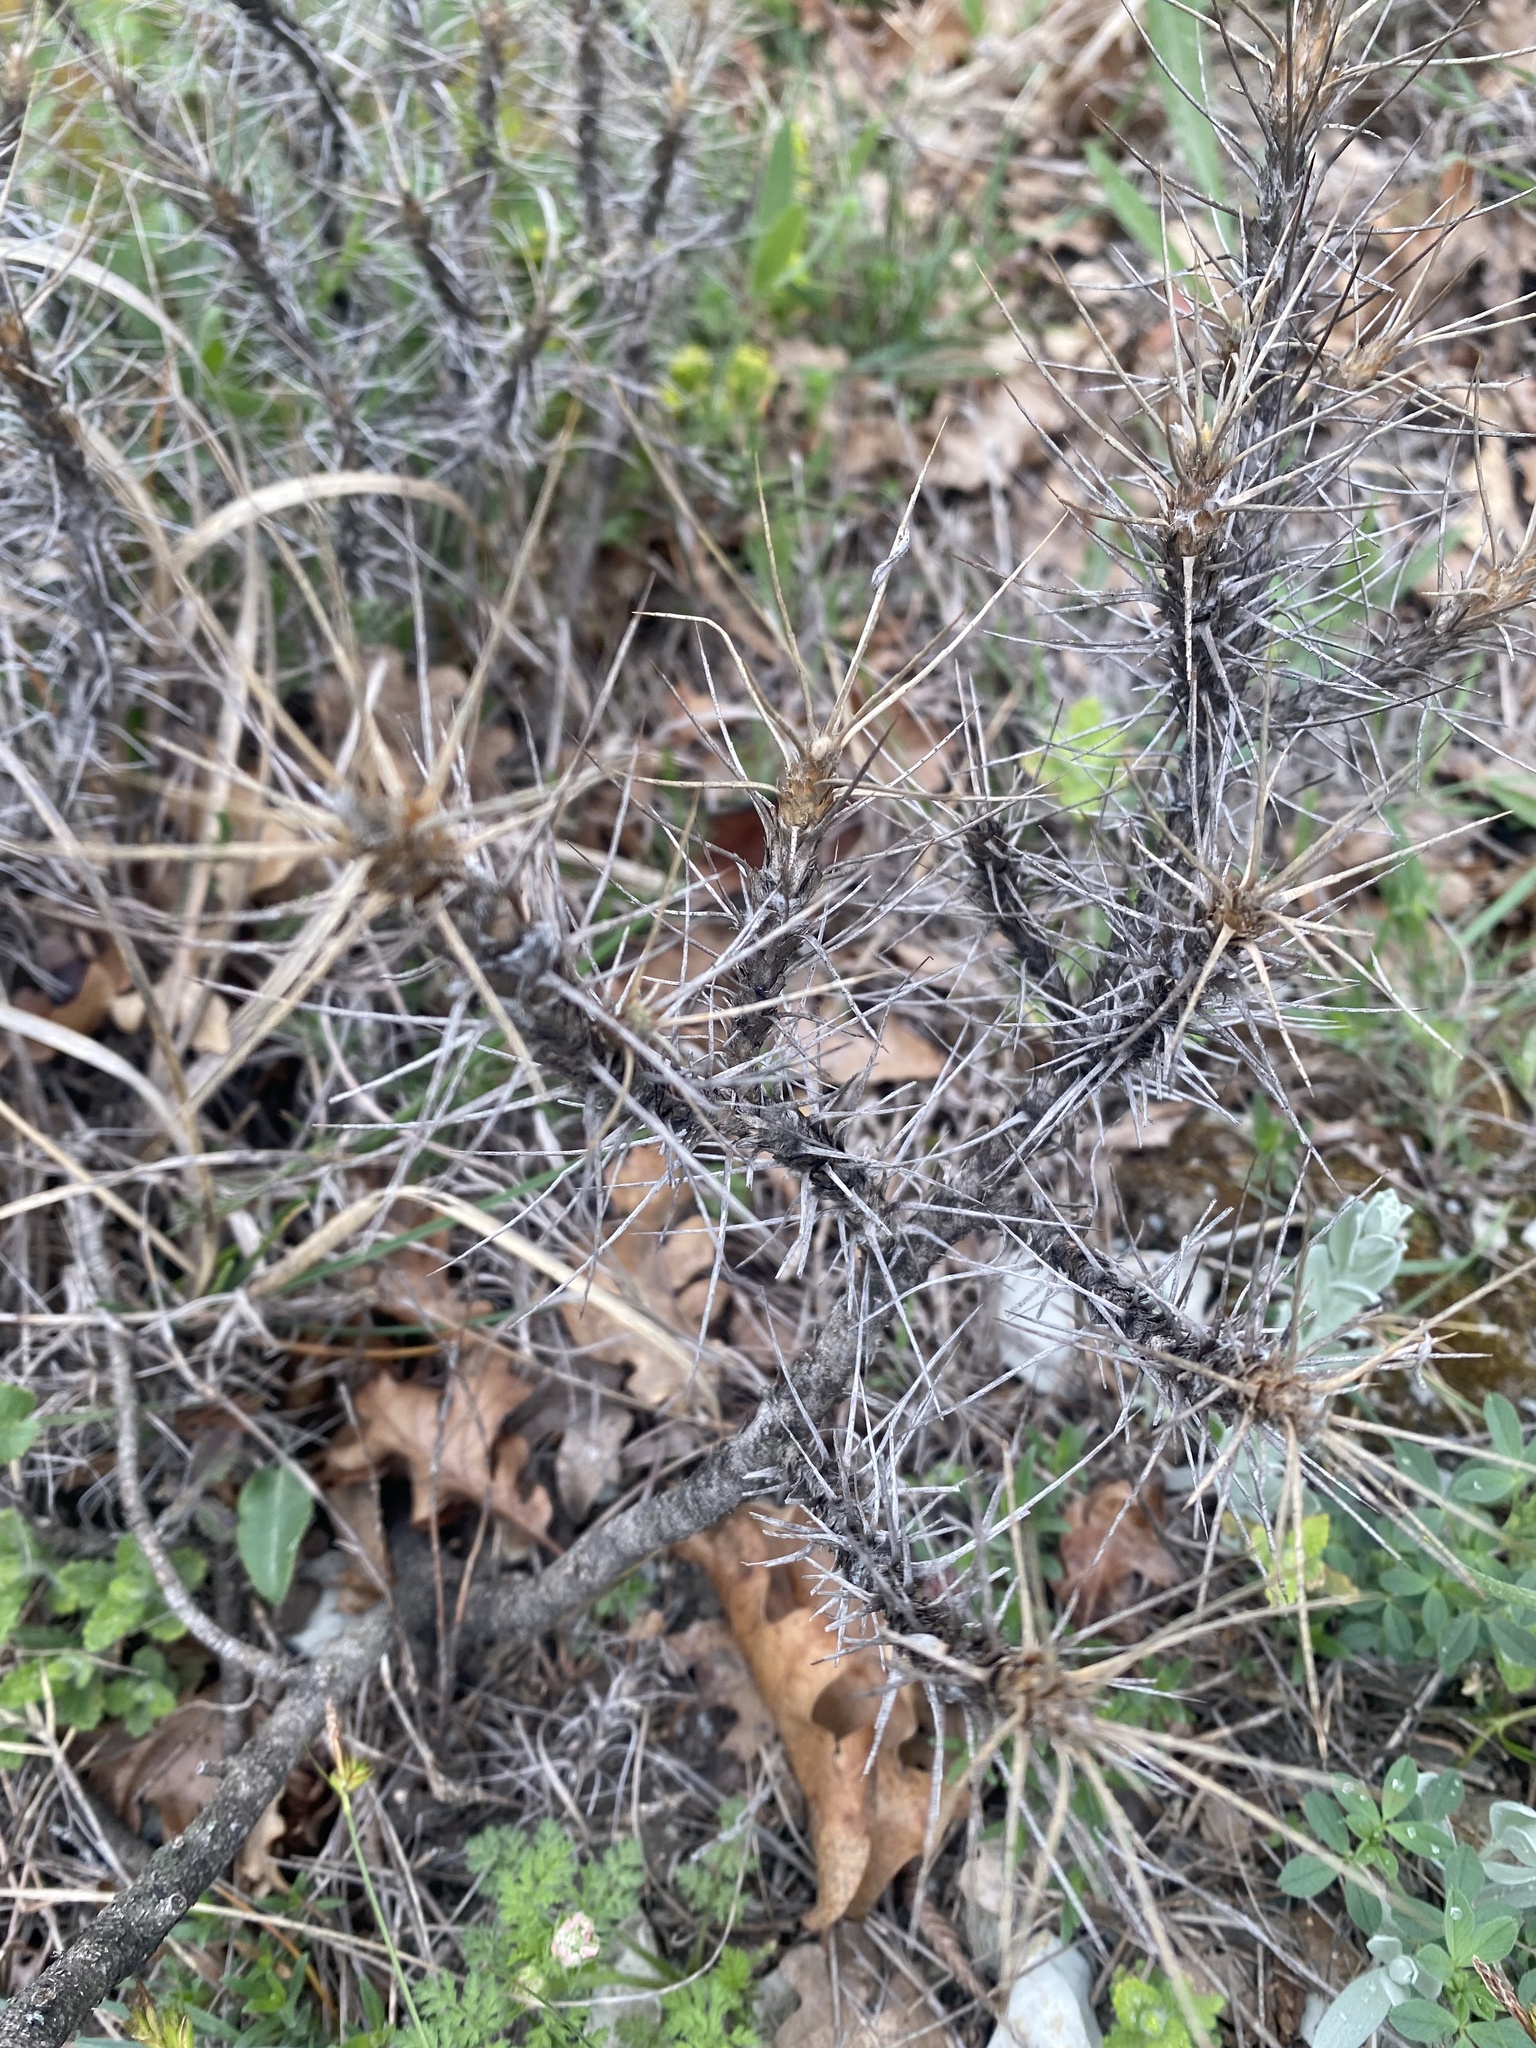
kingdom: Plantae
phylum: Tracheophyta
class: Magnoliopsida
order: Fabales
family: Fabaceae
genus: Astragalus
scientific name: Astragalus arnacanthoides
